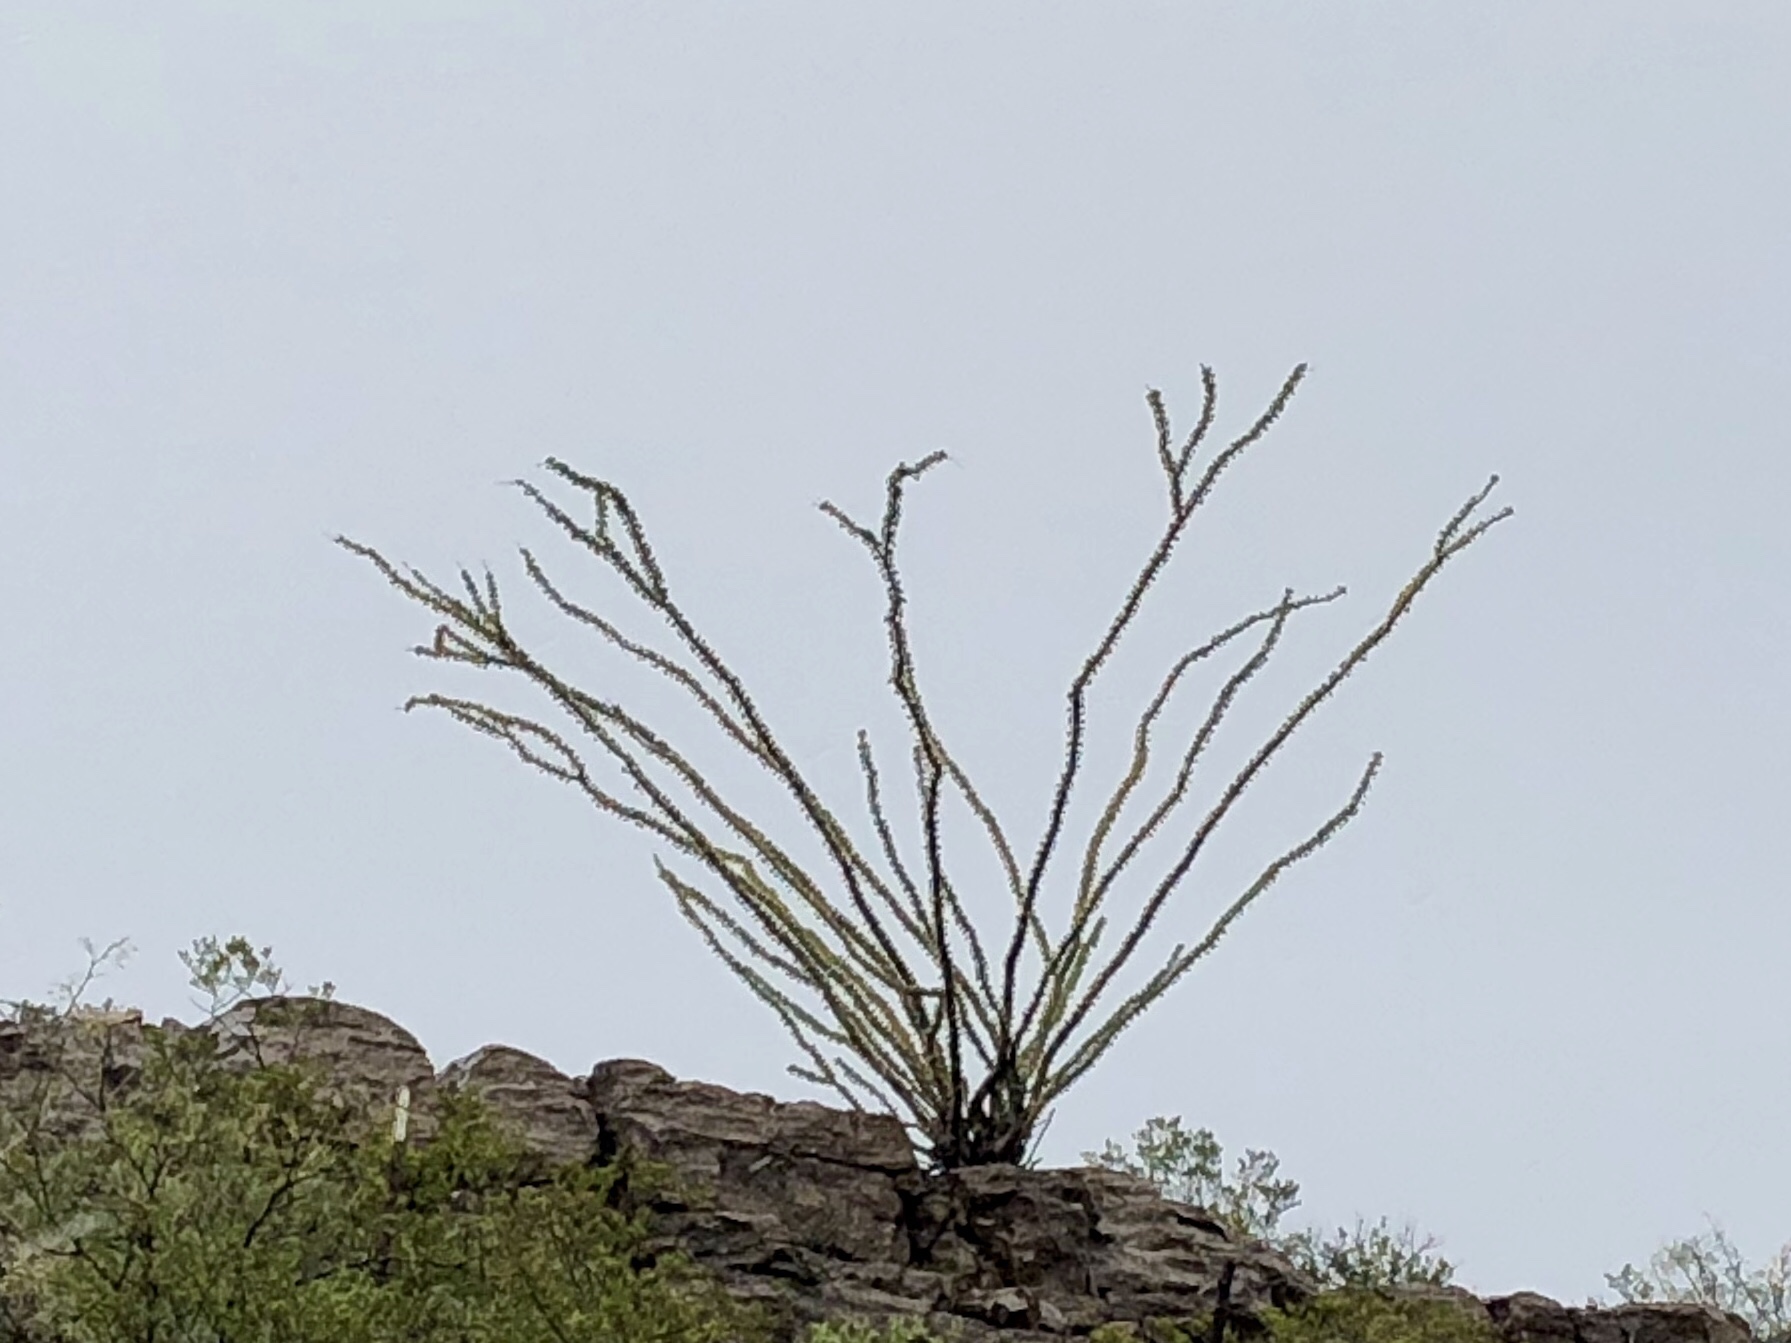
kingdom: Plantae
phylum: Tracheophyta
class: Magnoliopsida
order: Ericales
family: Fouquieriaceae
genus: Fouquieria
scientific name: Fouquieria splendens
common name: Vine-cactus
